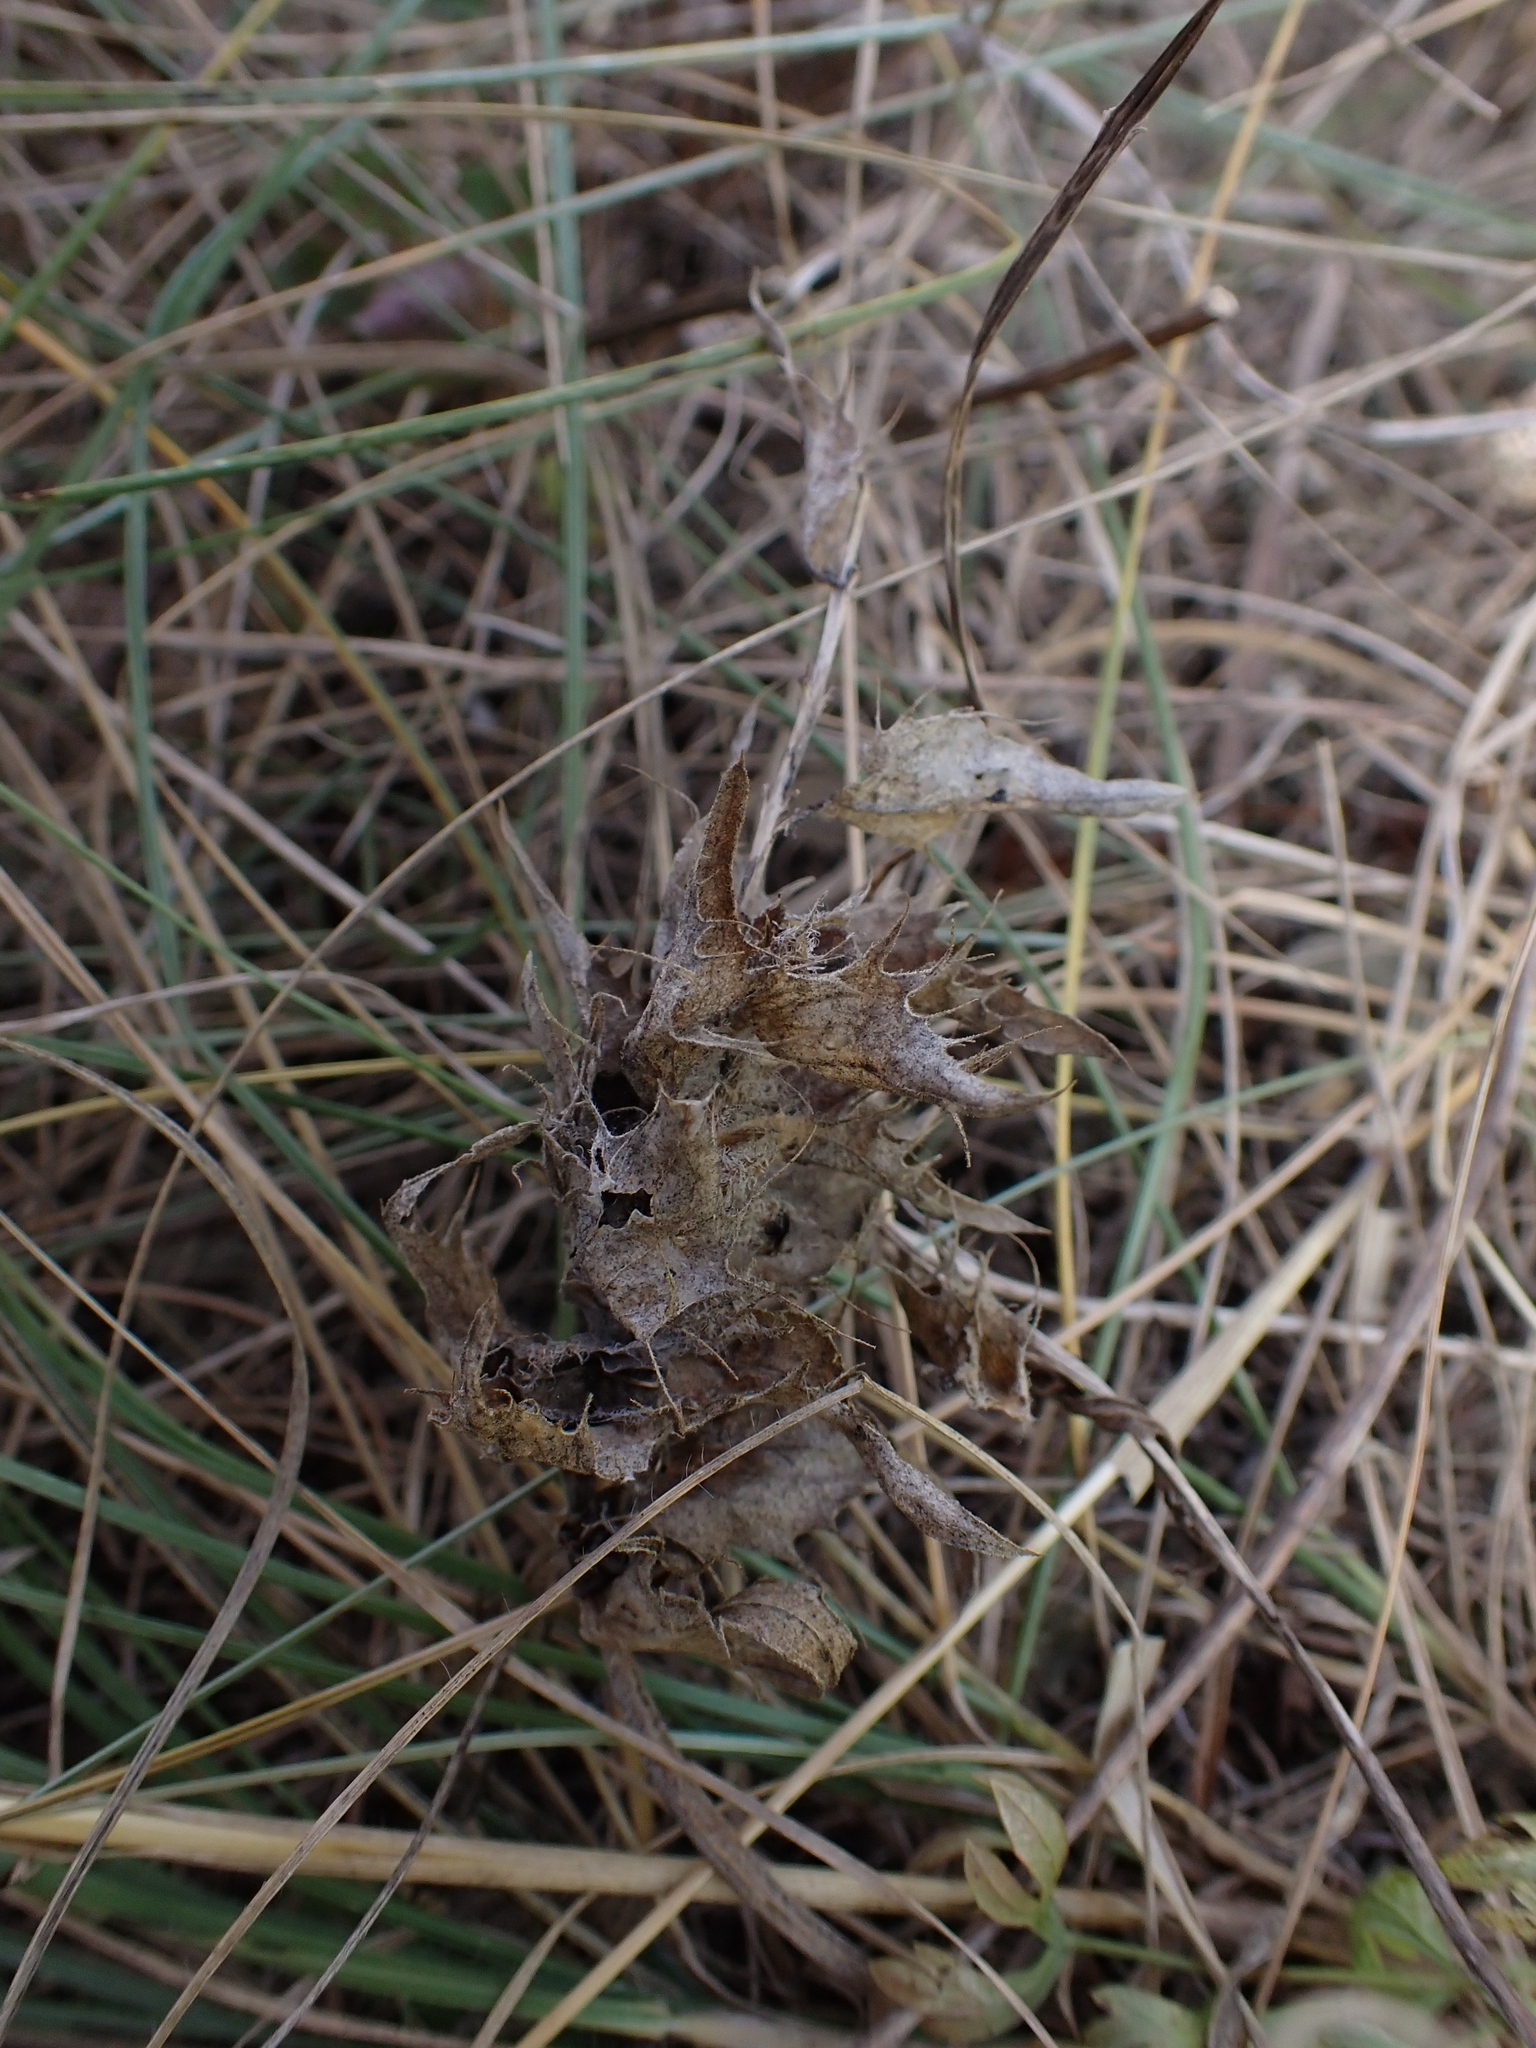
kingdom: Plantae
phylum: Tracheophyta
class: Magnoliopsida
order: Lamiales
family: Orobanchaceae
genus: Melampyrum
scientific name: Melampyrum barbatum
